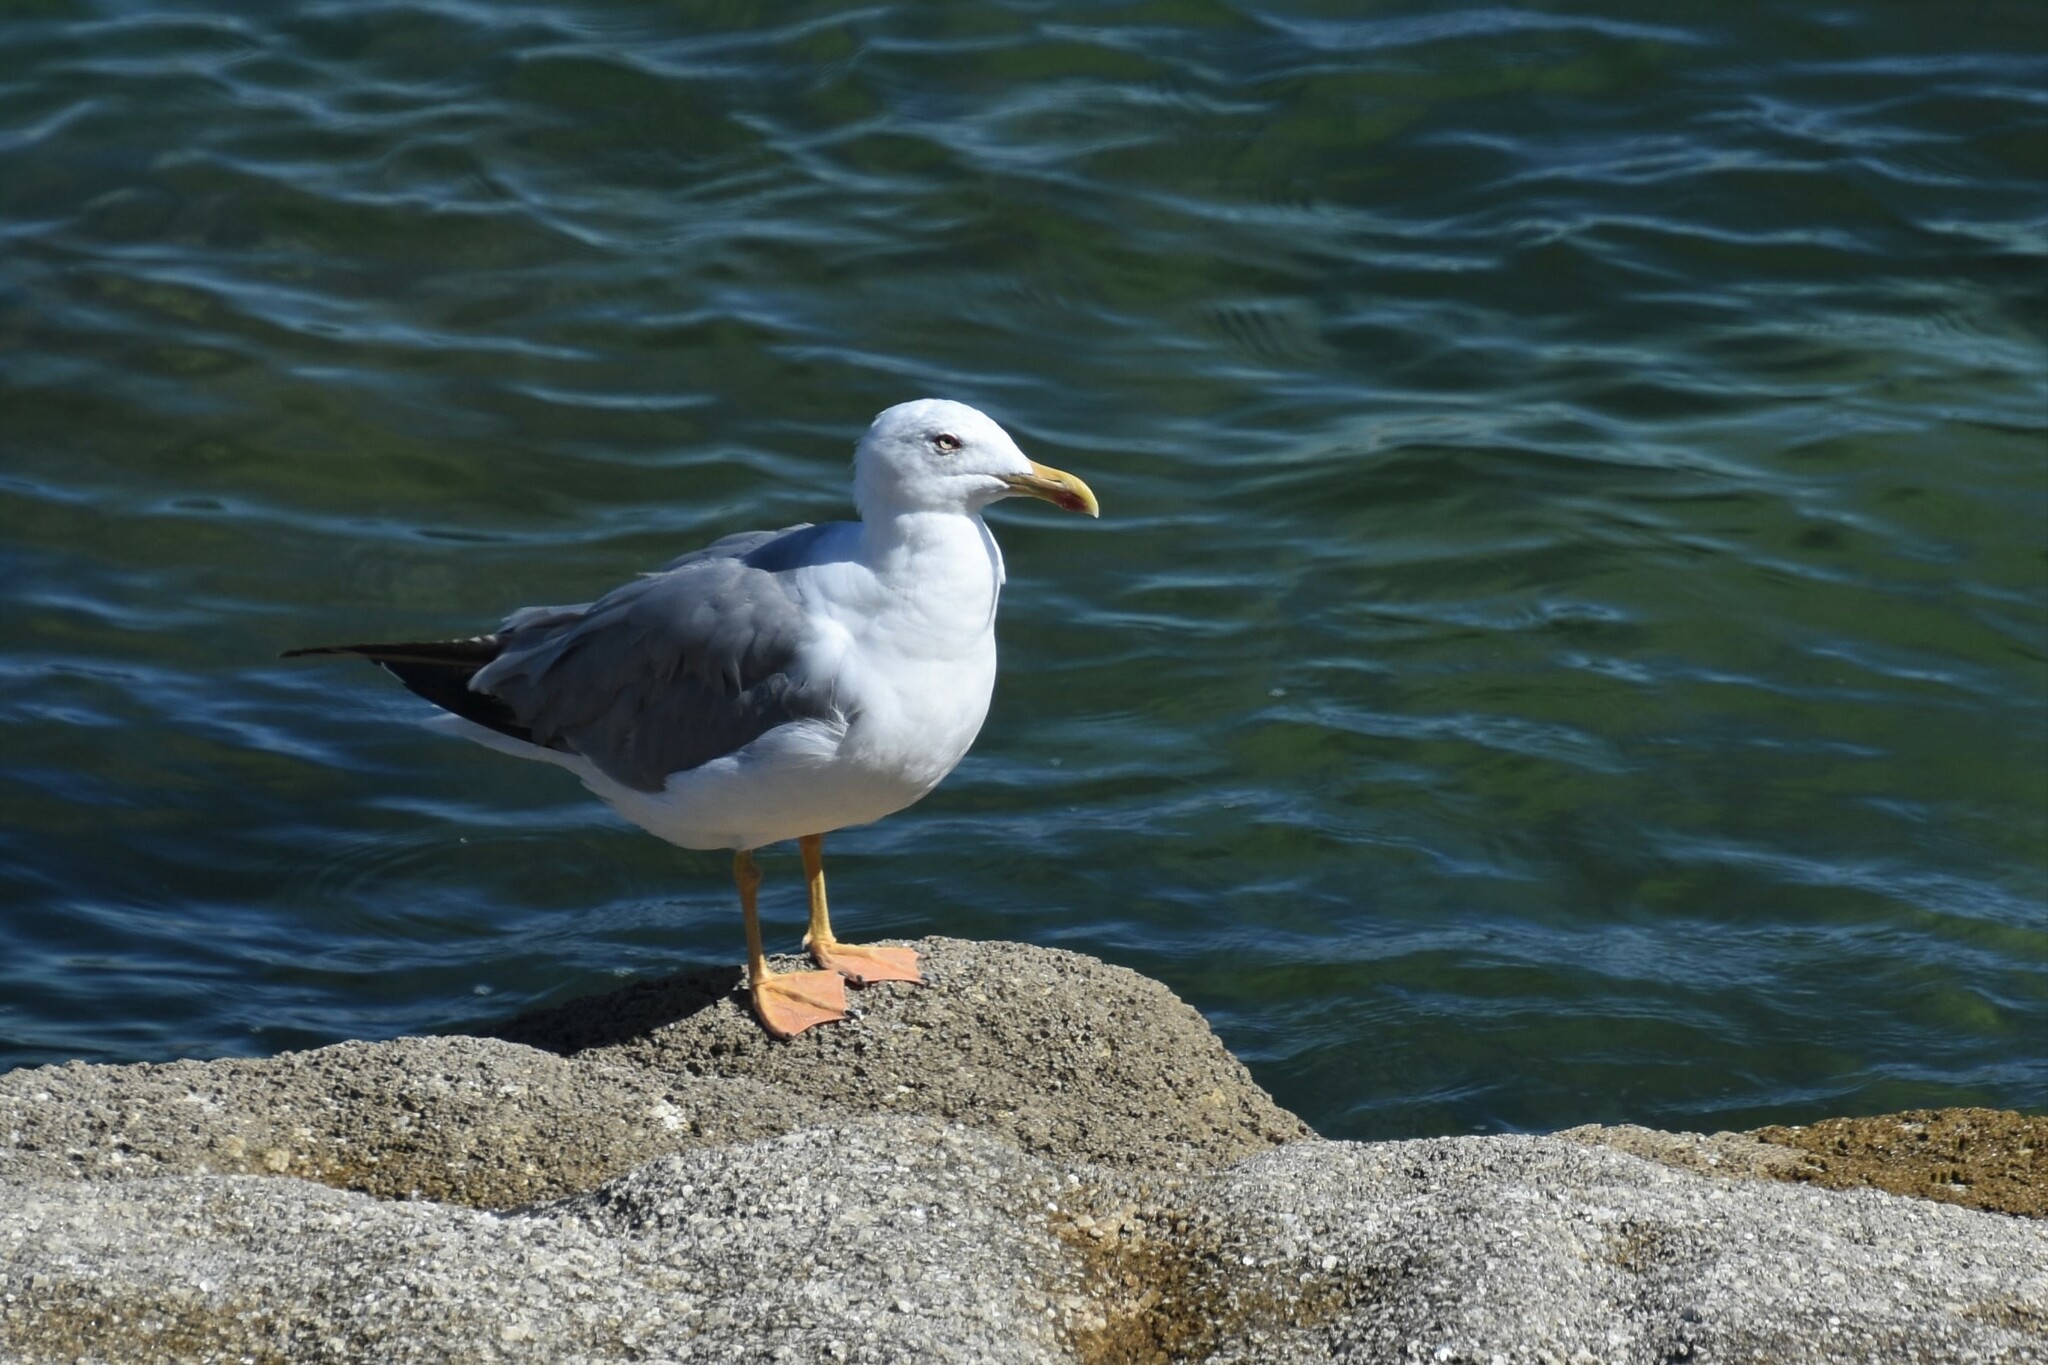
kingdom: Animalia
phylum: Chordata
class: Aves
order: Charadriiformes
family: Laridae
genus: Larus
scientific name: Larus michahellis
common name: Yellow-legged gull
